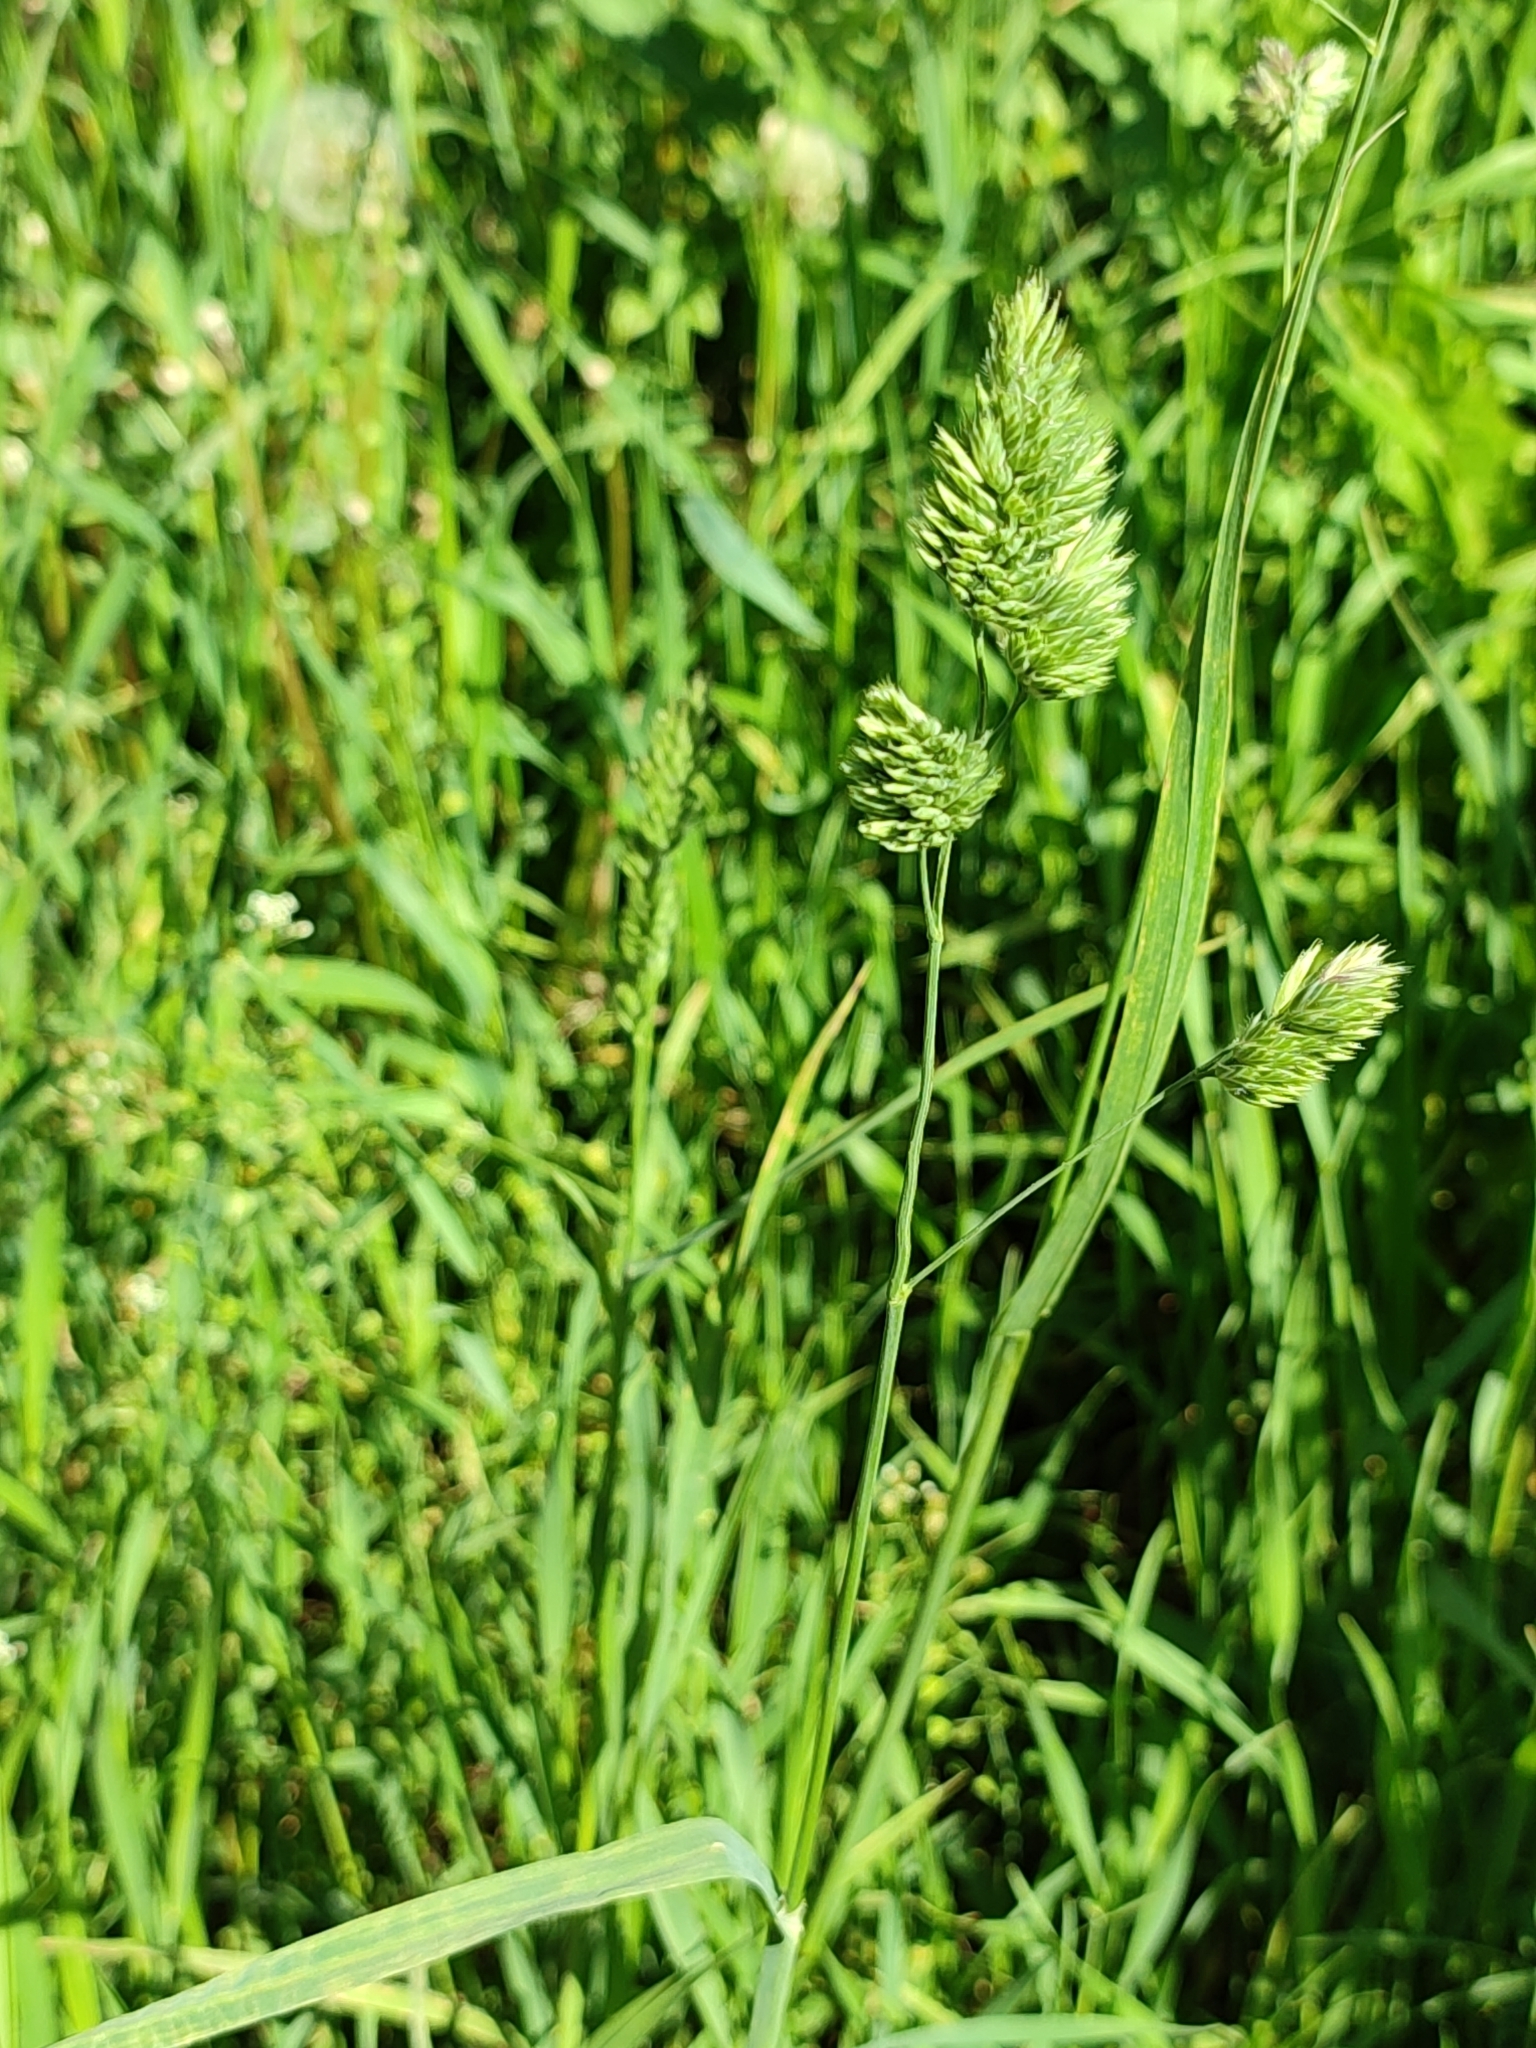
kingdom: Plantae
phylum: Tracheophyta
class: Liliopsida
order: Poales
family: Poaceae
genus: Dactylis
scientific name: Dactylis glomerata
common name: Orchardgrass
